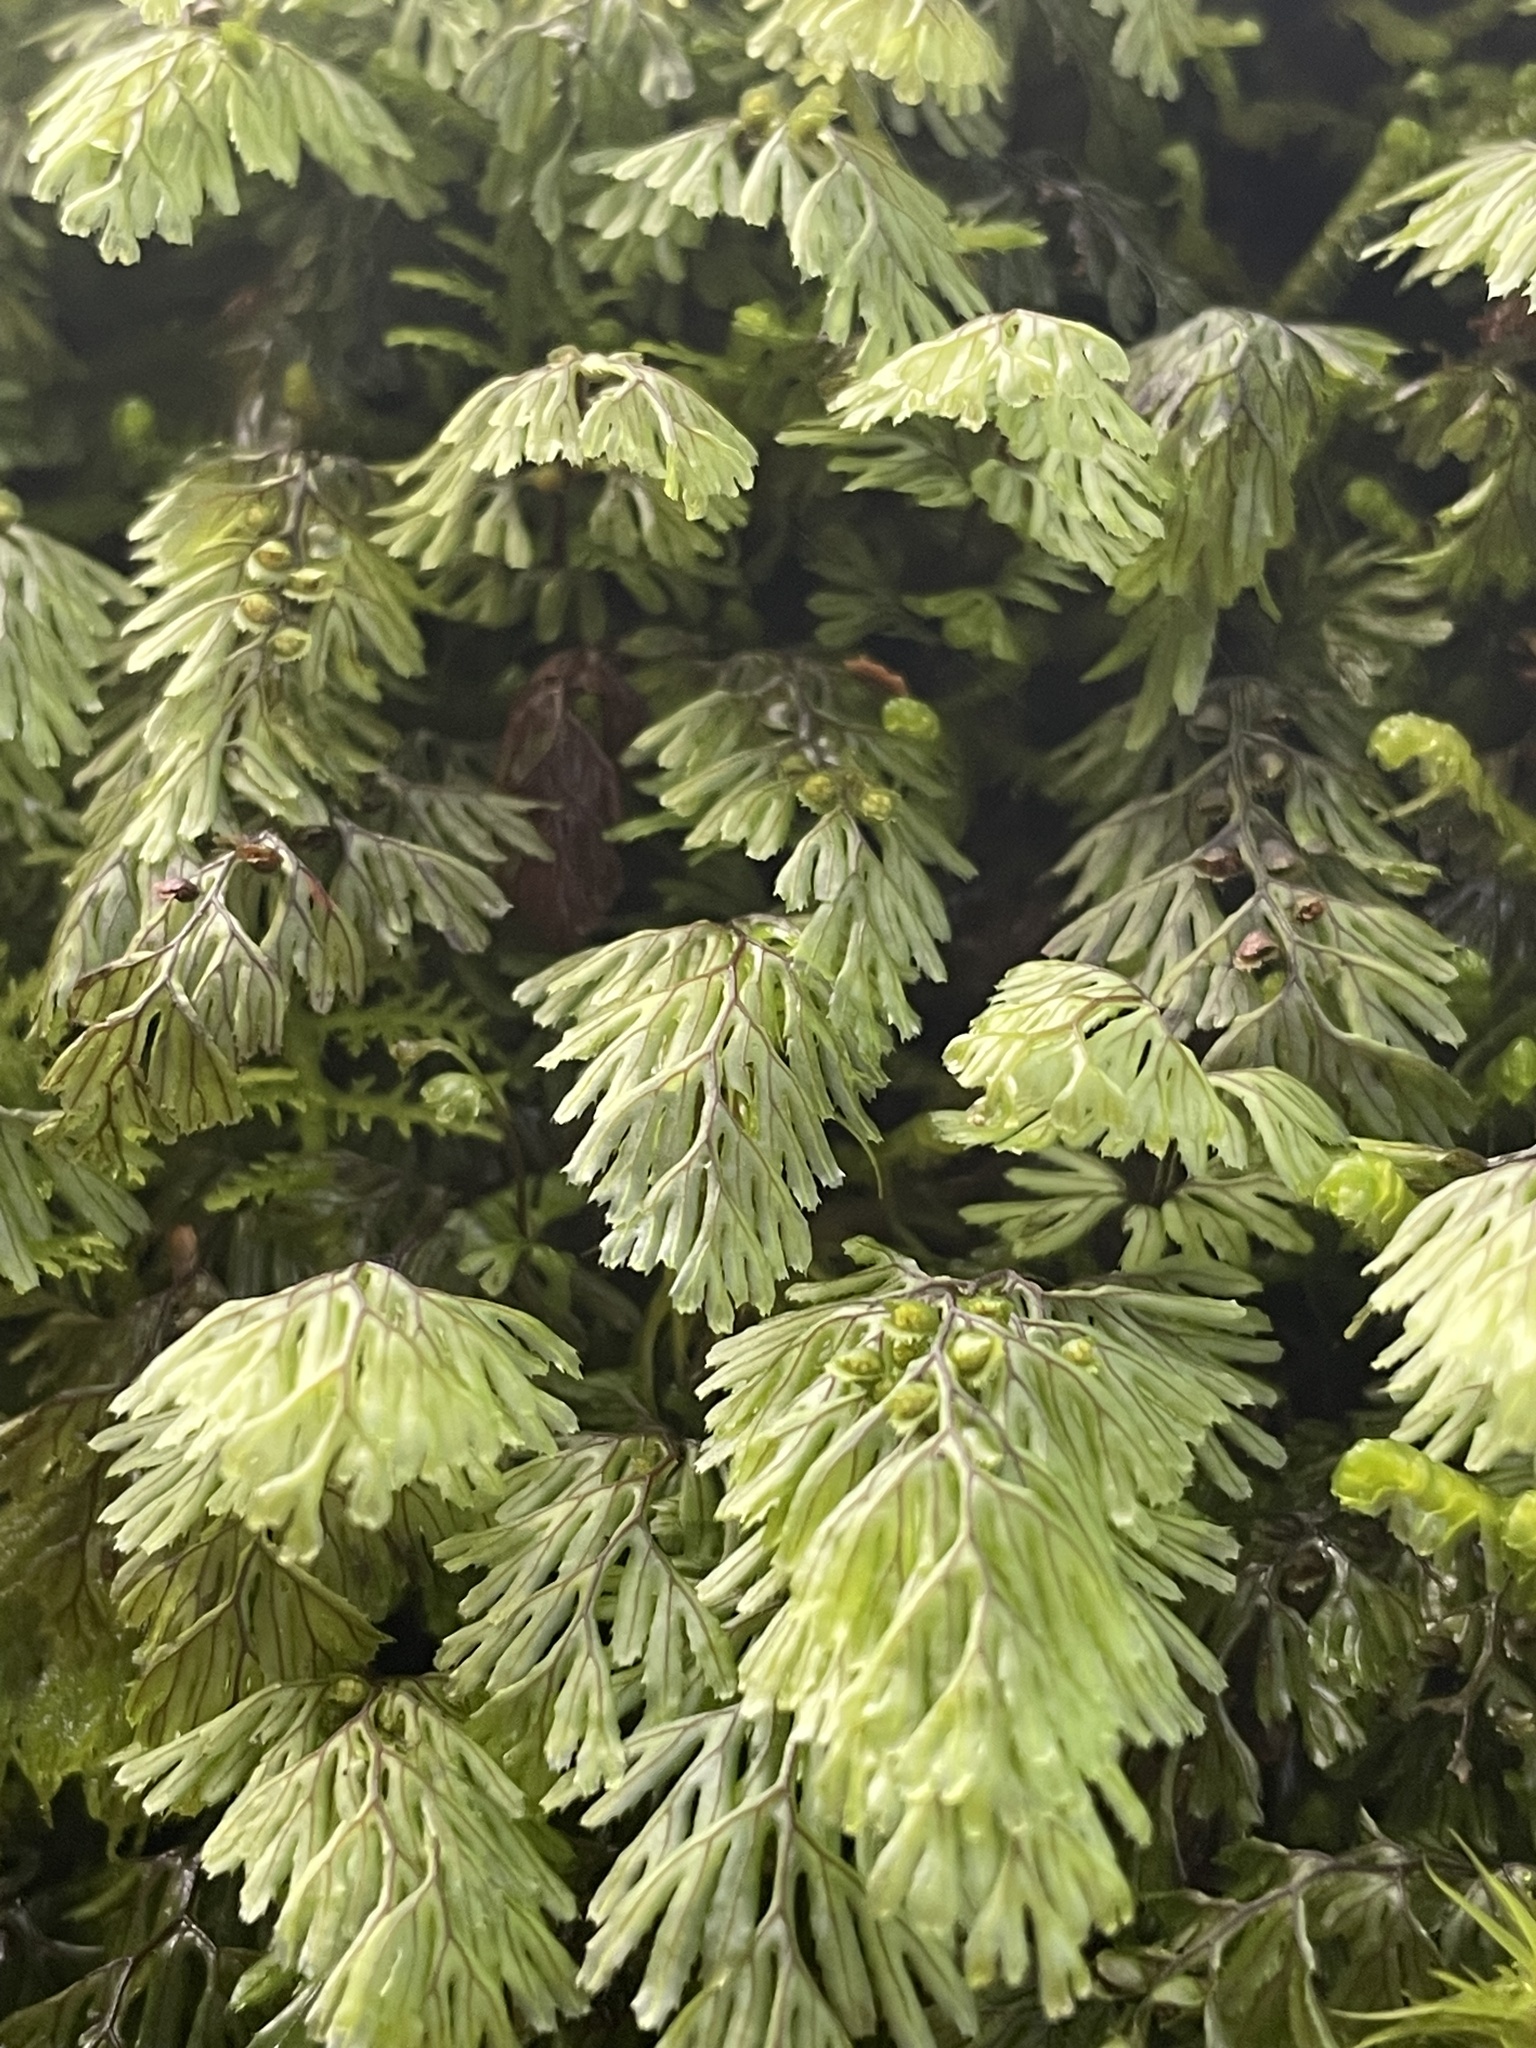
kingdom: Plantae
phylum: Tracheophyta
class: Polypodiopsida
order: Hymenophyllales
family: Hymenophyllaceae
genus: Hymenophyllum
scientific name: Hymenophyllum tunbrigense
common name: Tunbridge filmy fern
